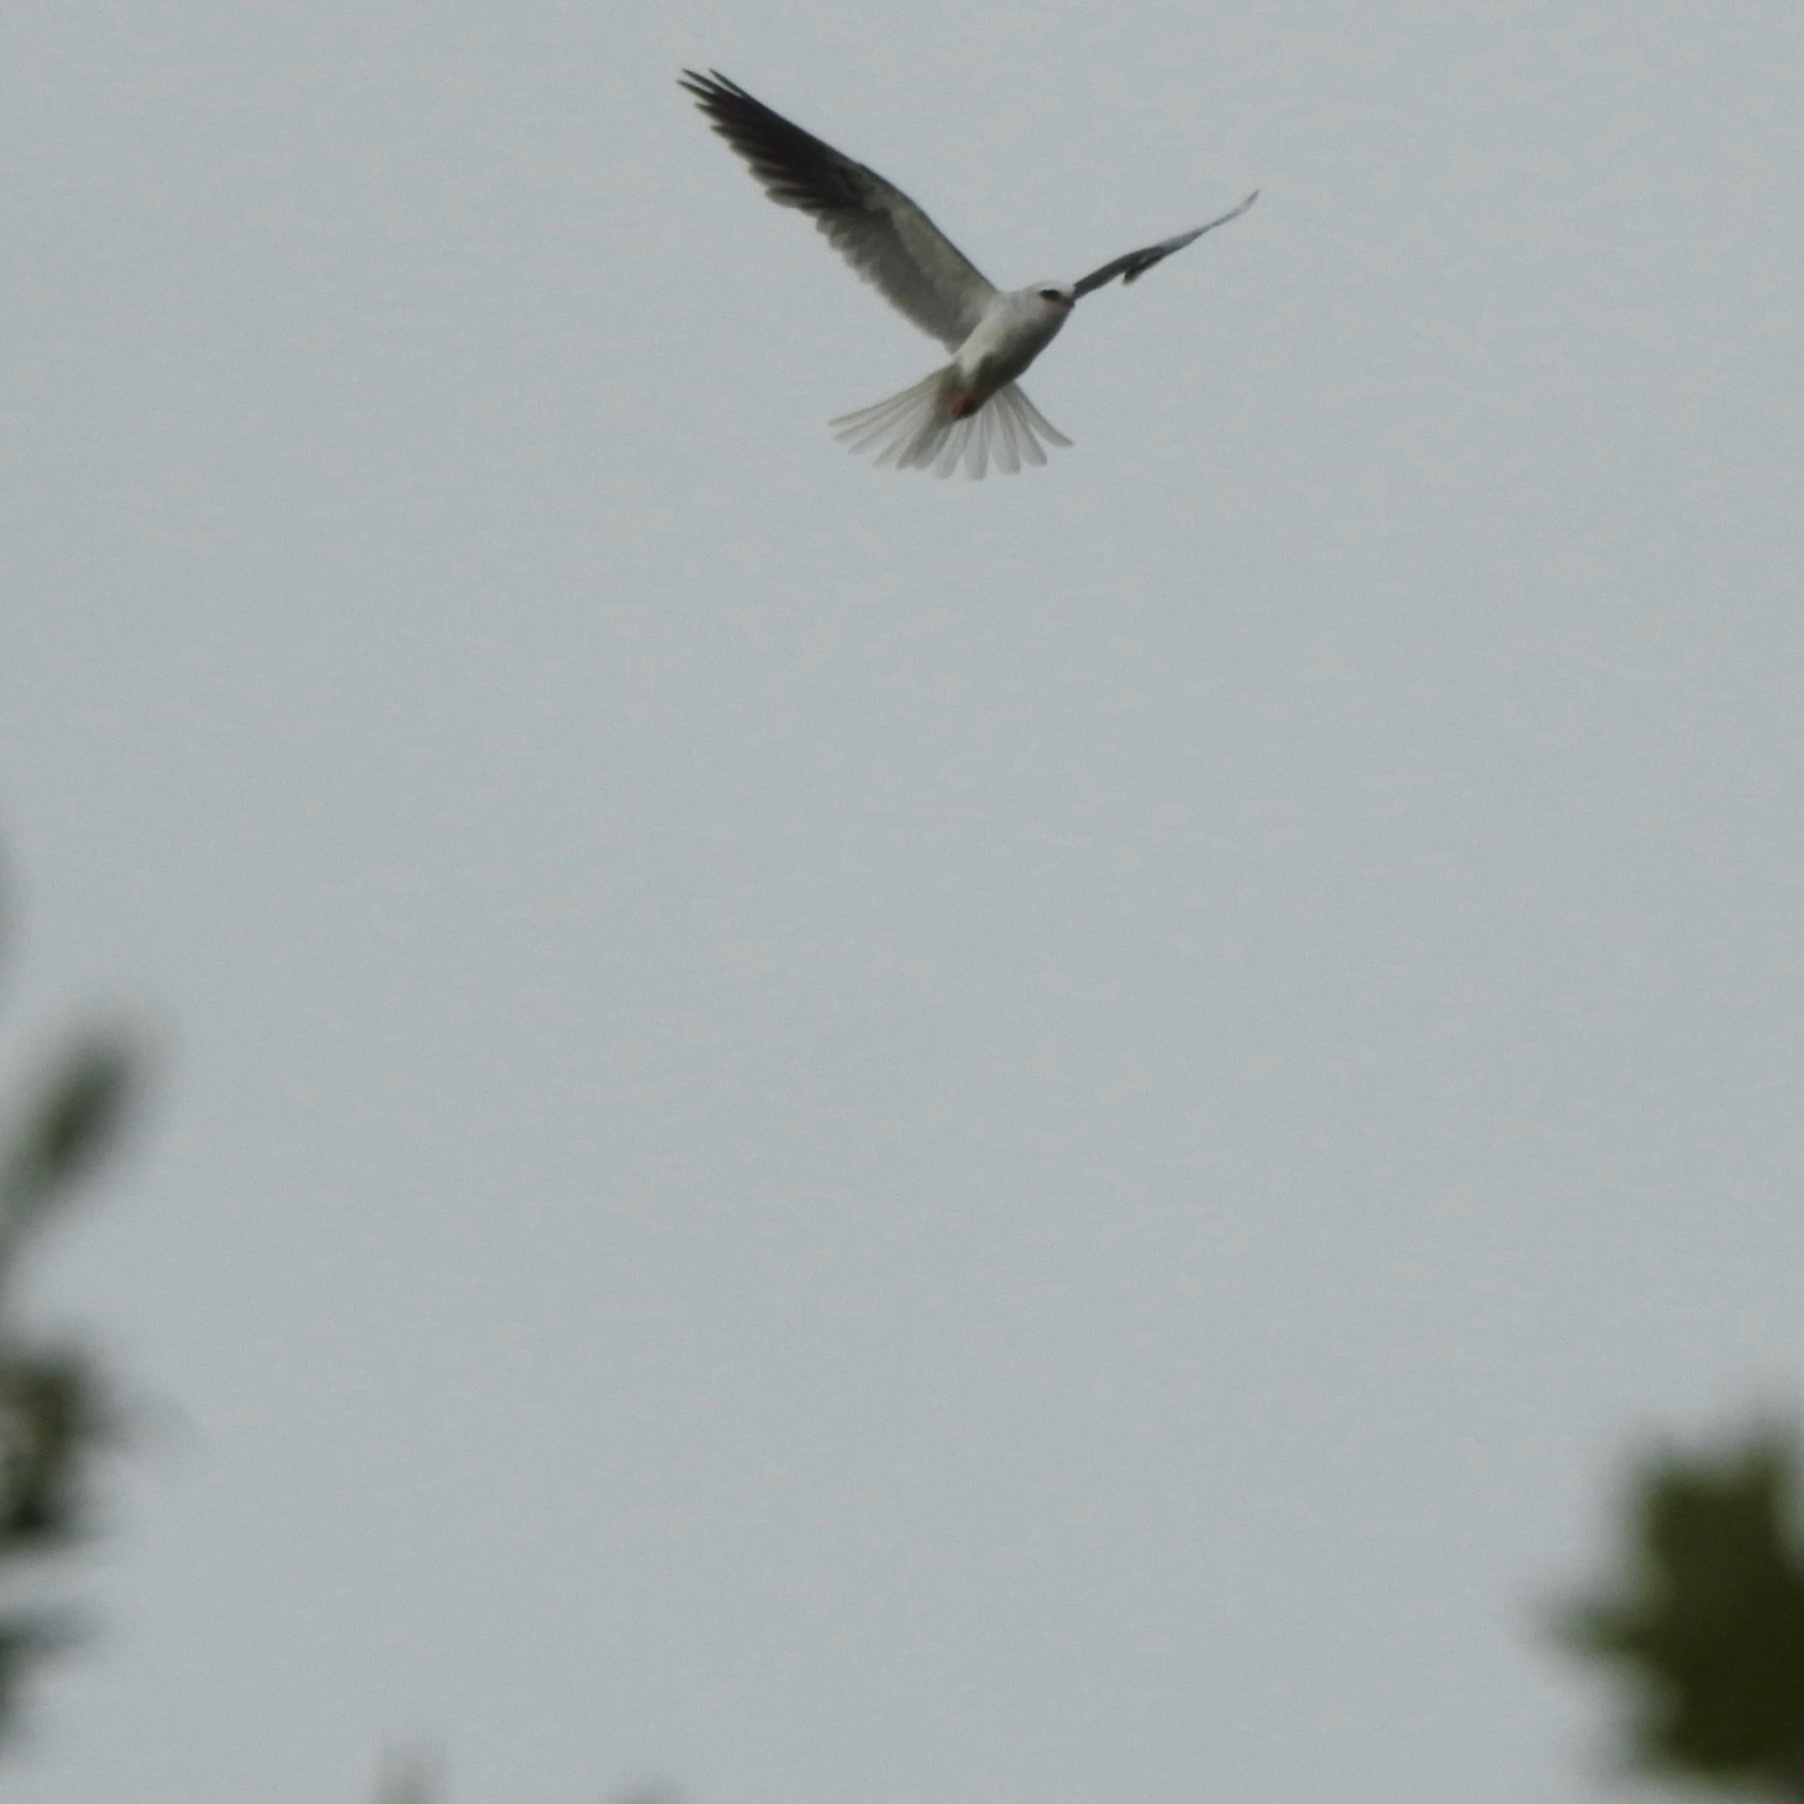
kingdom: Animalia
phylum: Chordata
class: Aves
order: Accipitriformes
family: Accipitridae
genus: Elanus
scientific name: Elanus leucurus
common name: White-tailed kite
